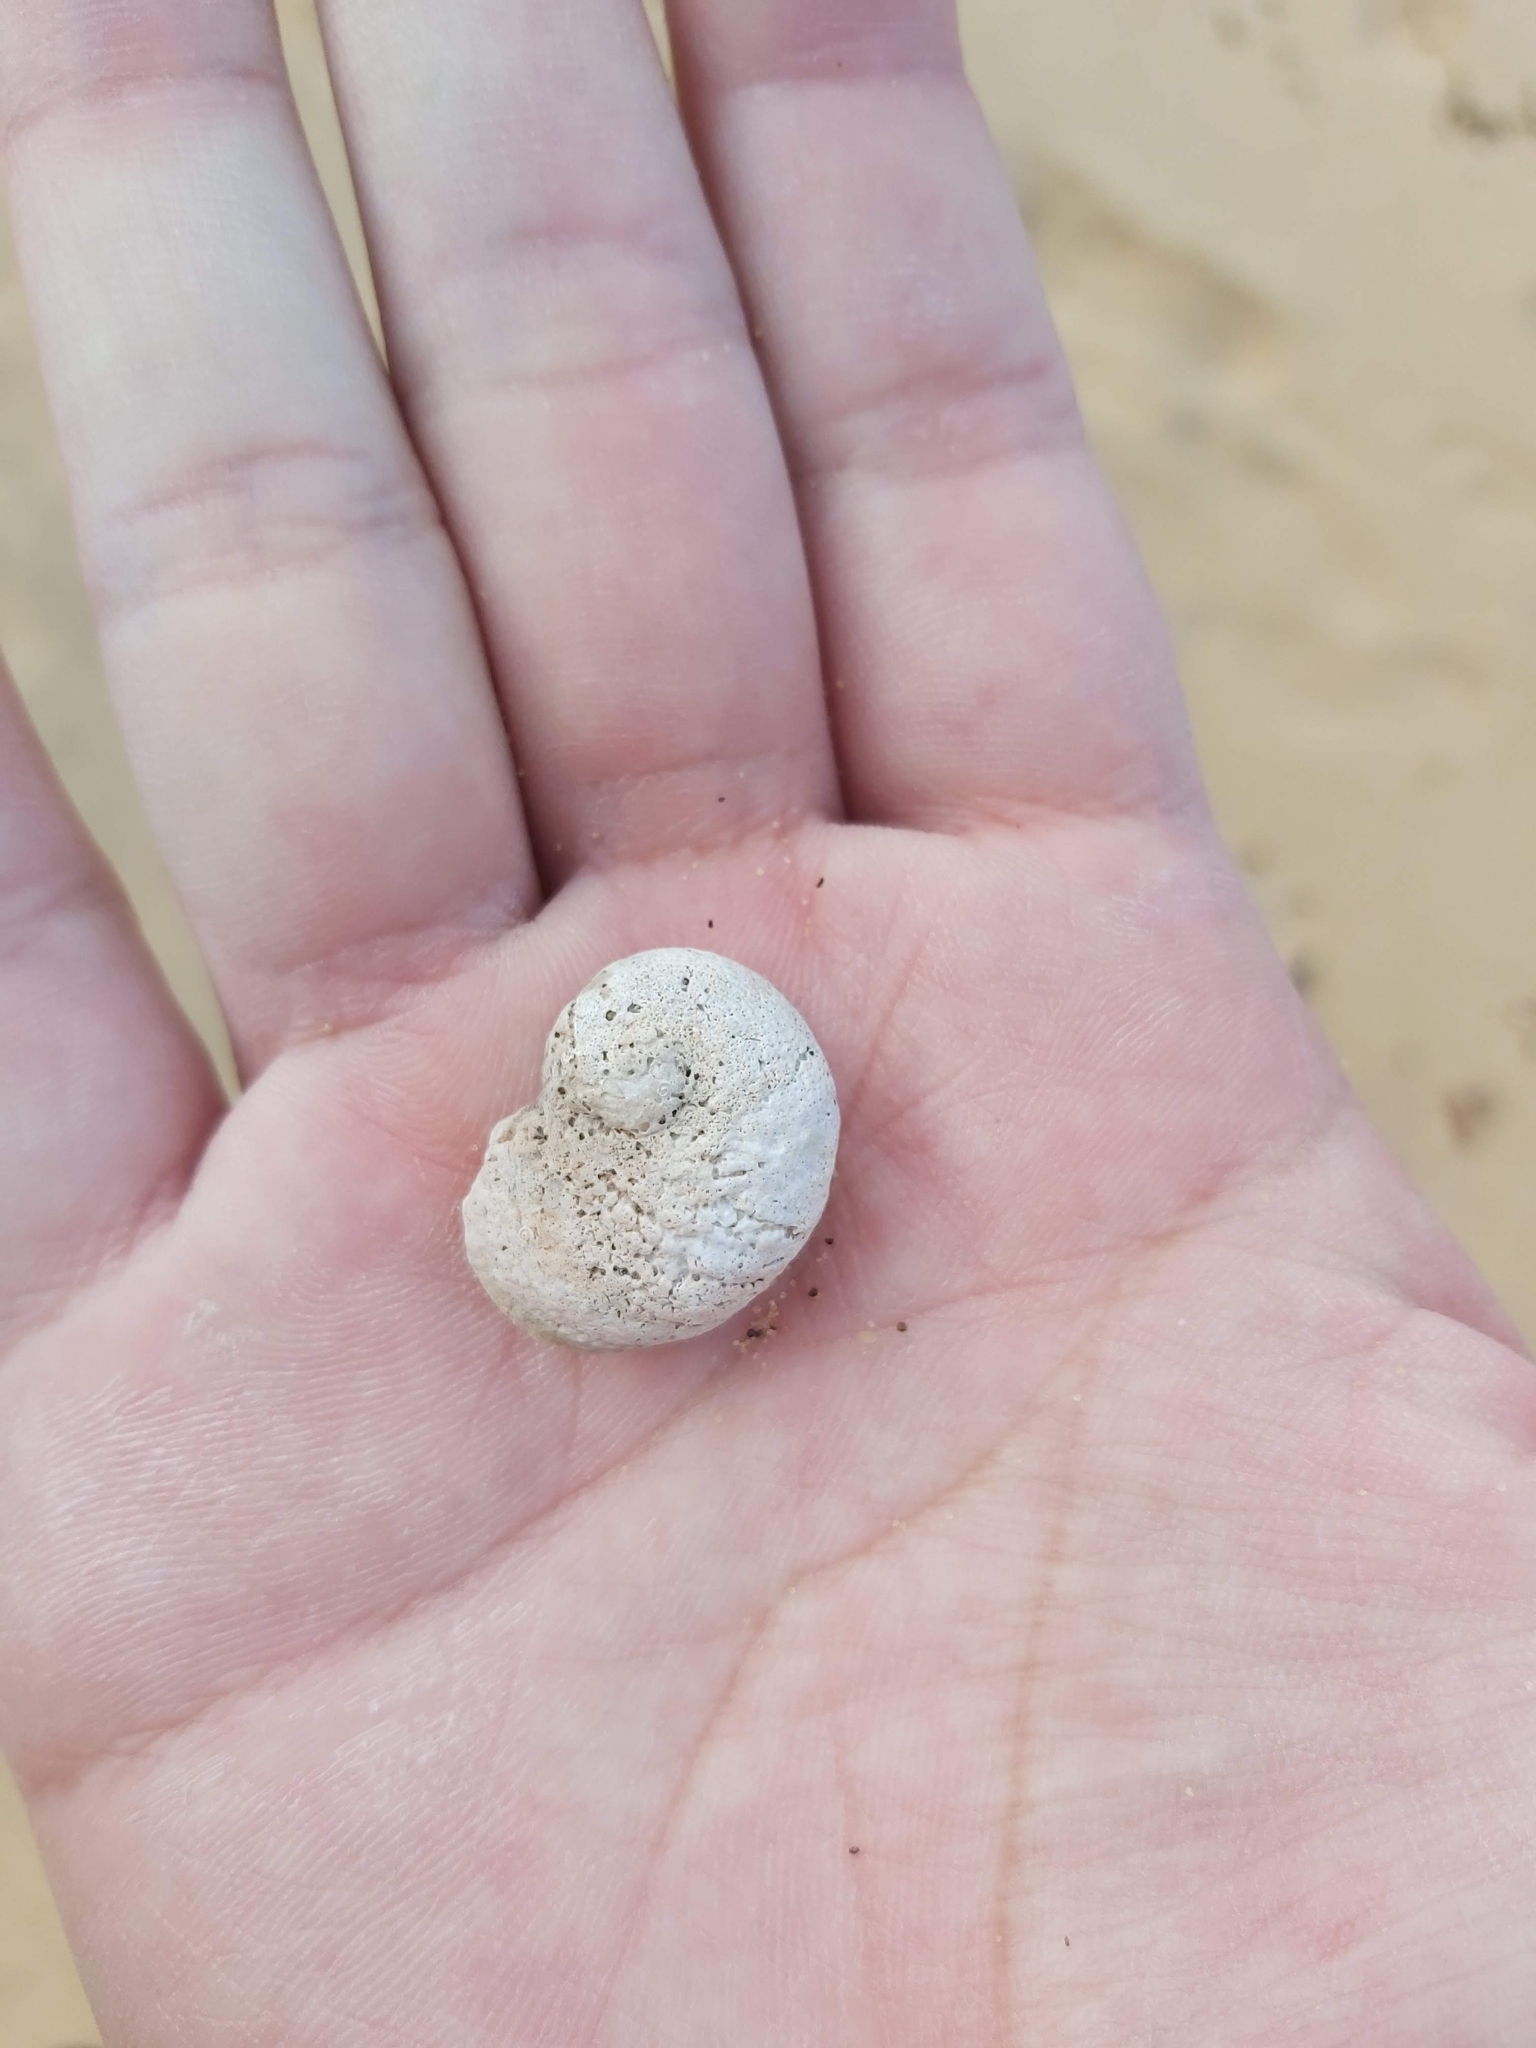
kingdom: Animalia
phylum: Mollusca
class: Gastropoda
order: Seguenziida
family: Chilodontaidae
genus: Granata
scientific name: Granata imbricata
